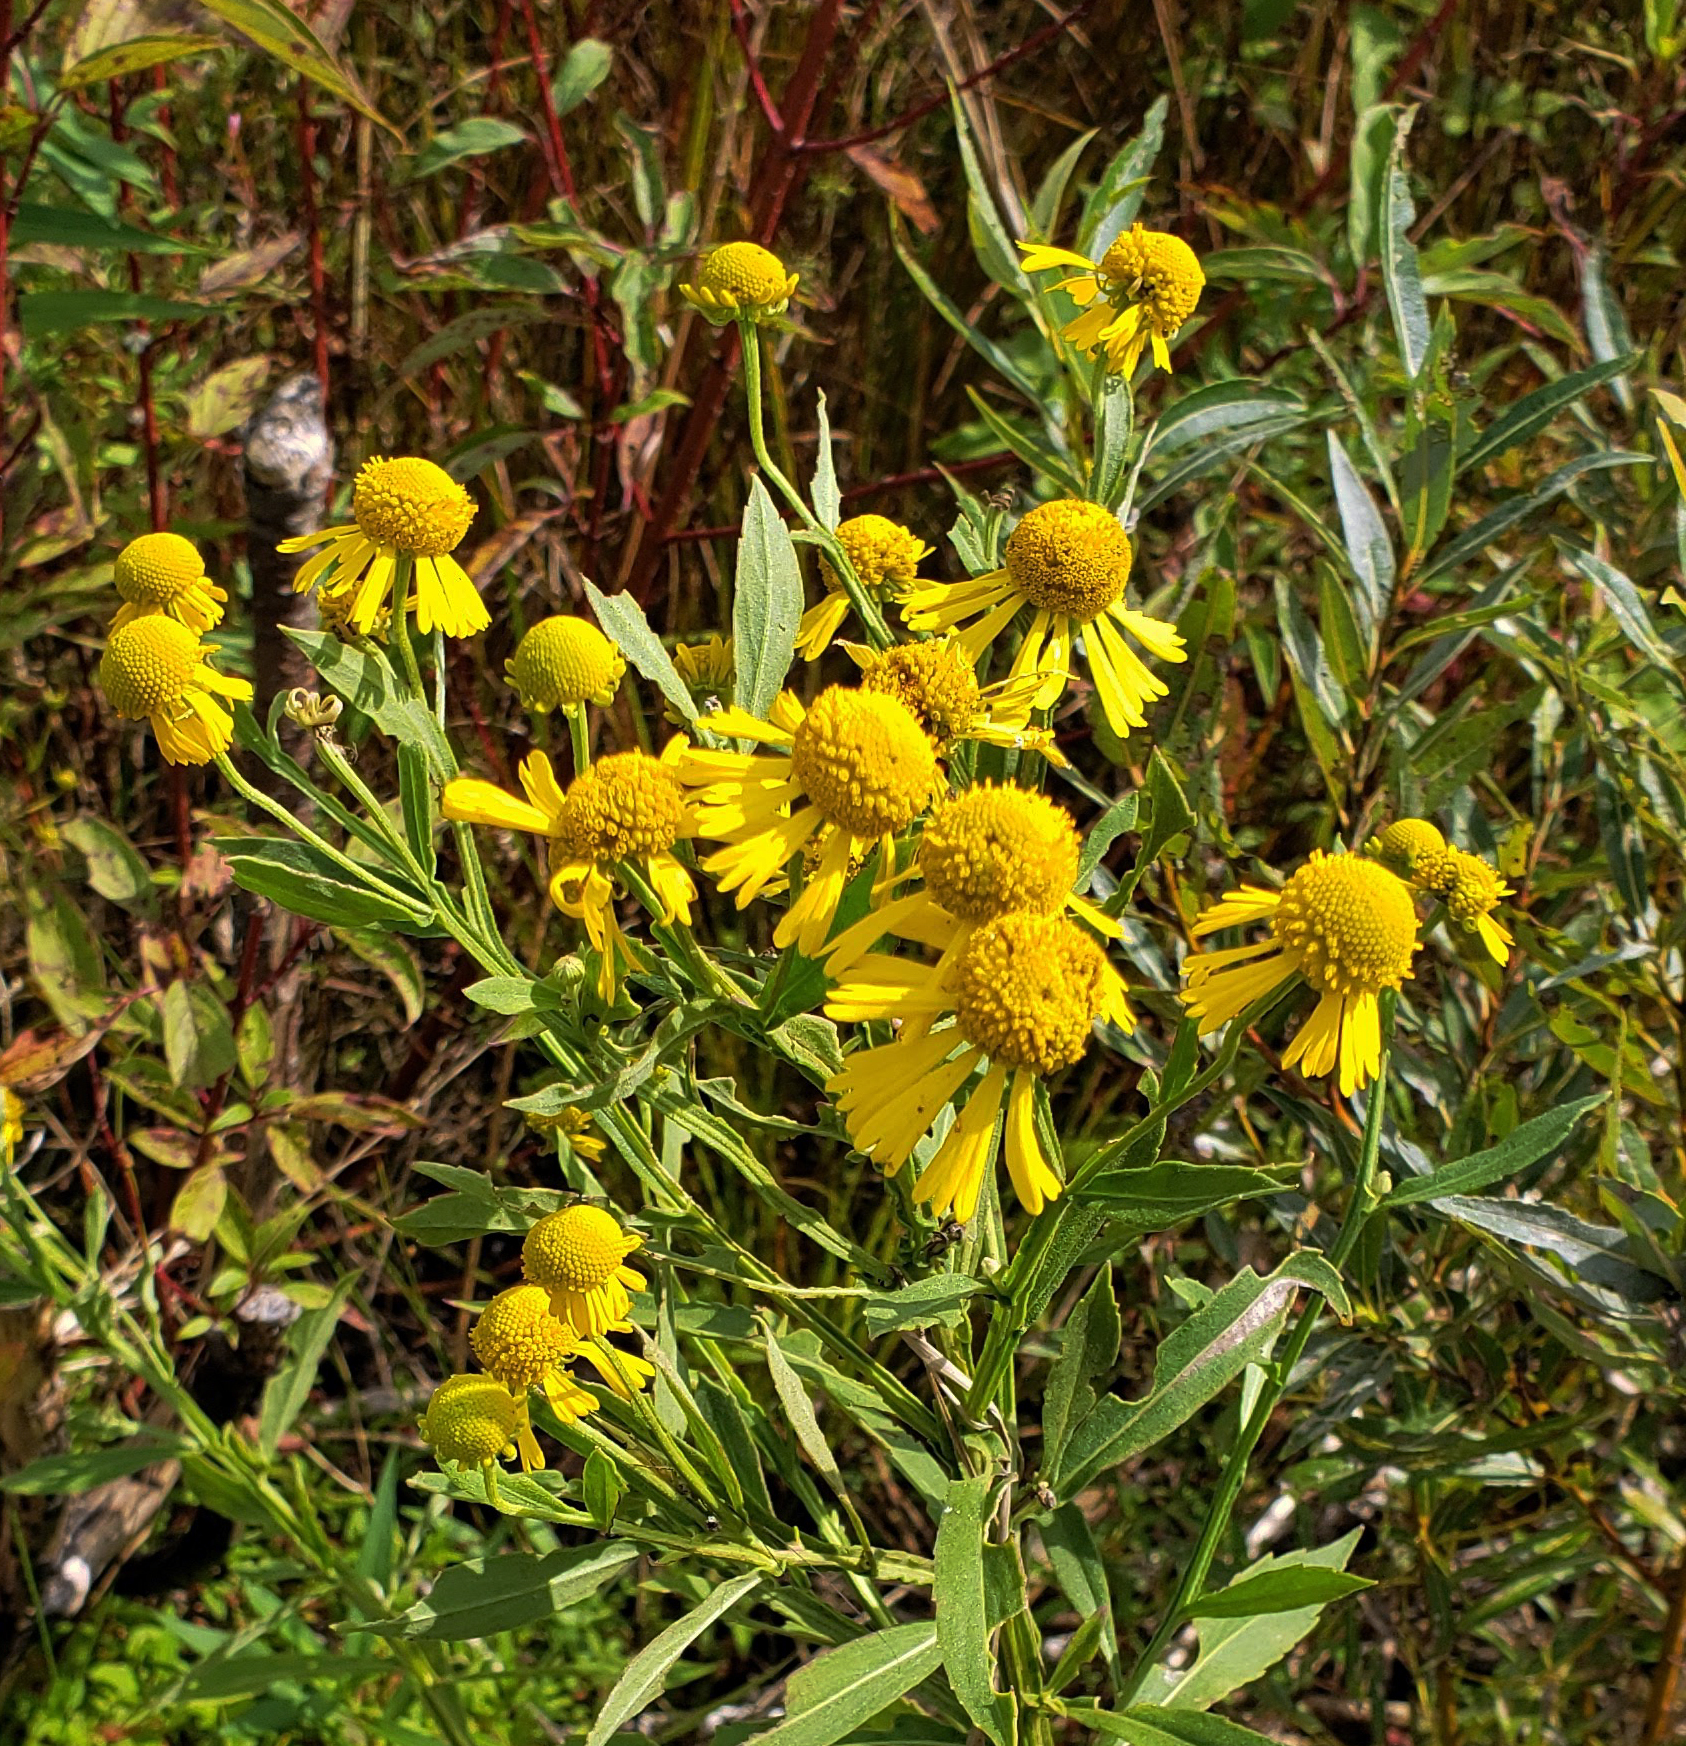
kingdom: Plantae
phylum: Tracheophyta
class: Magnoliopsida
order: Asterales
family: Asteraceae
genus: Helenium
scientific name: Helenium autumnale
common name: Sneezeweed
